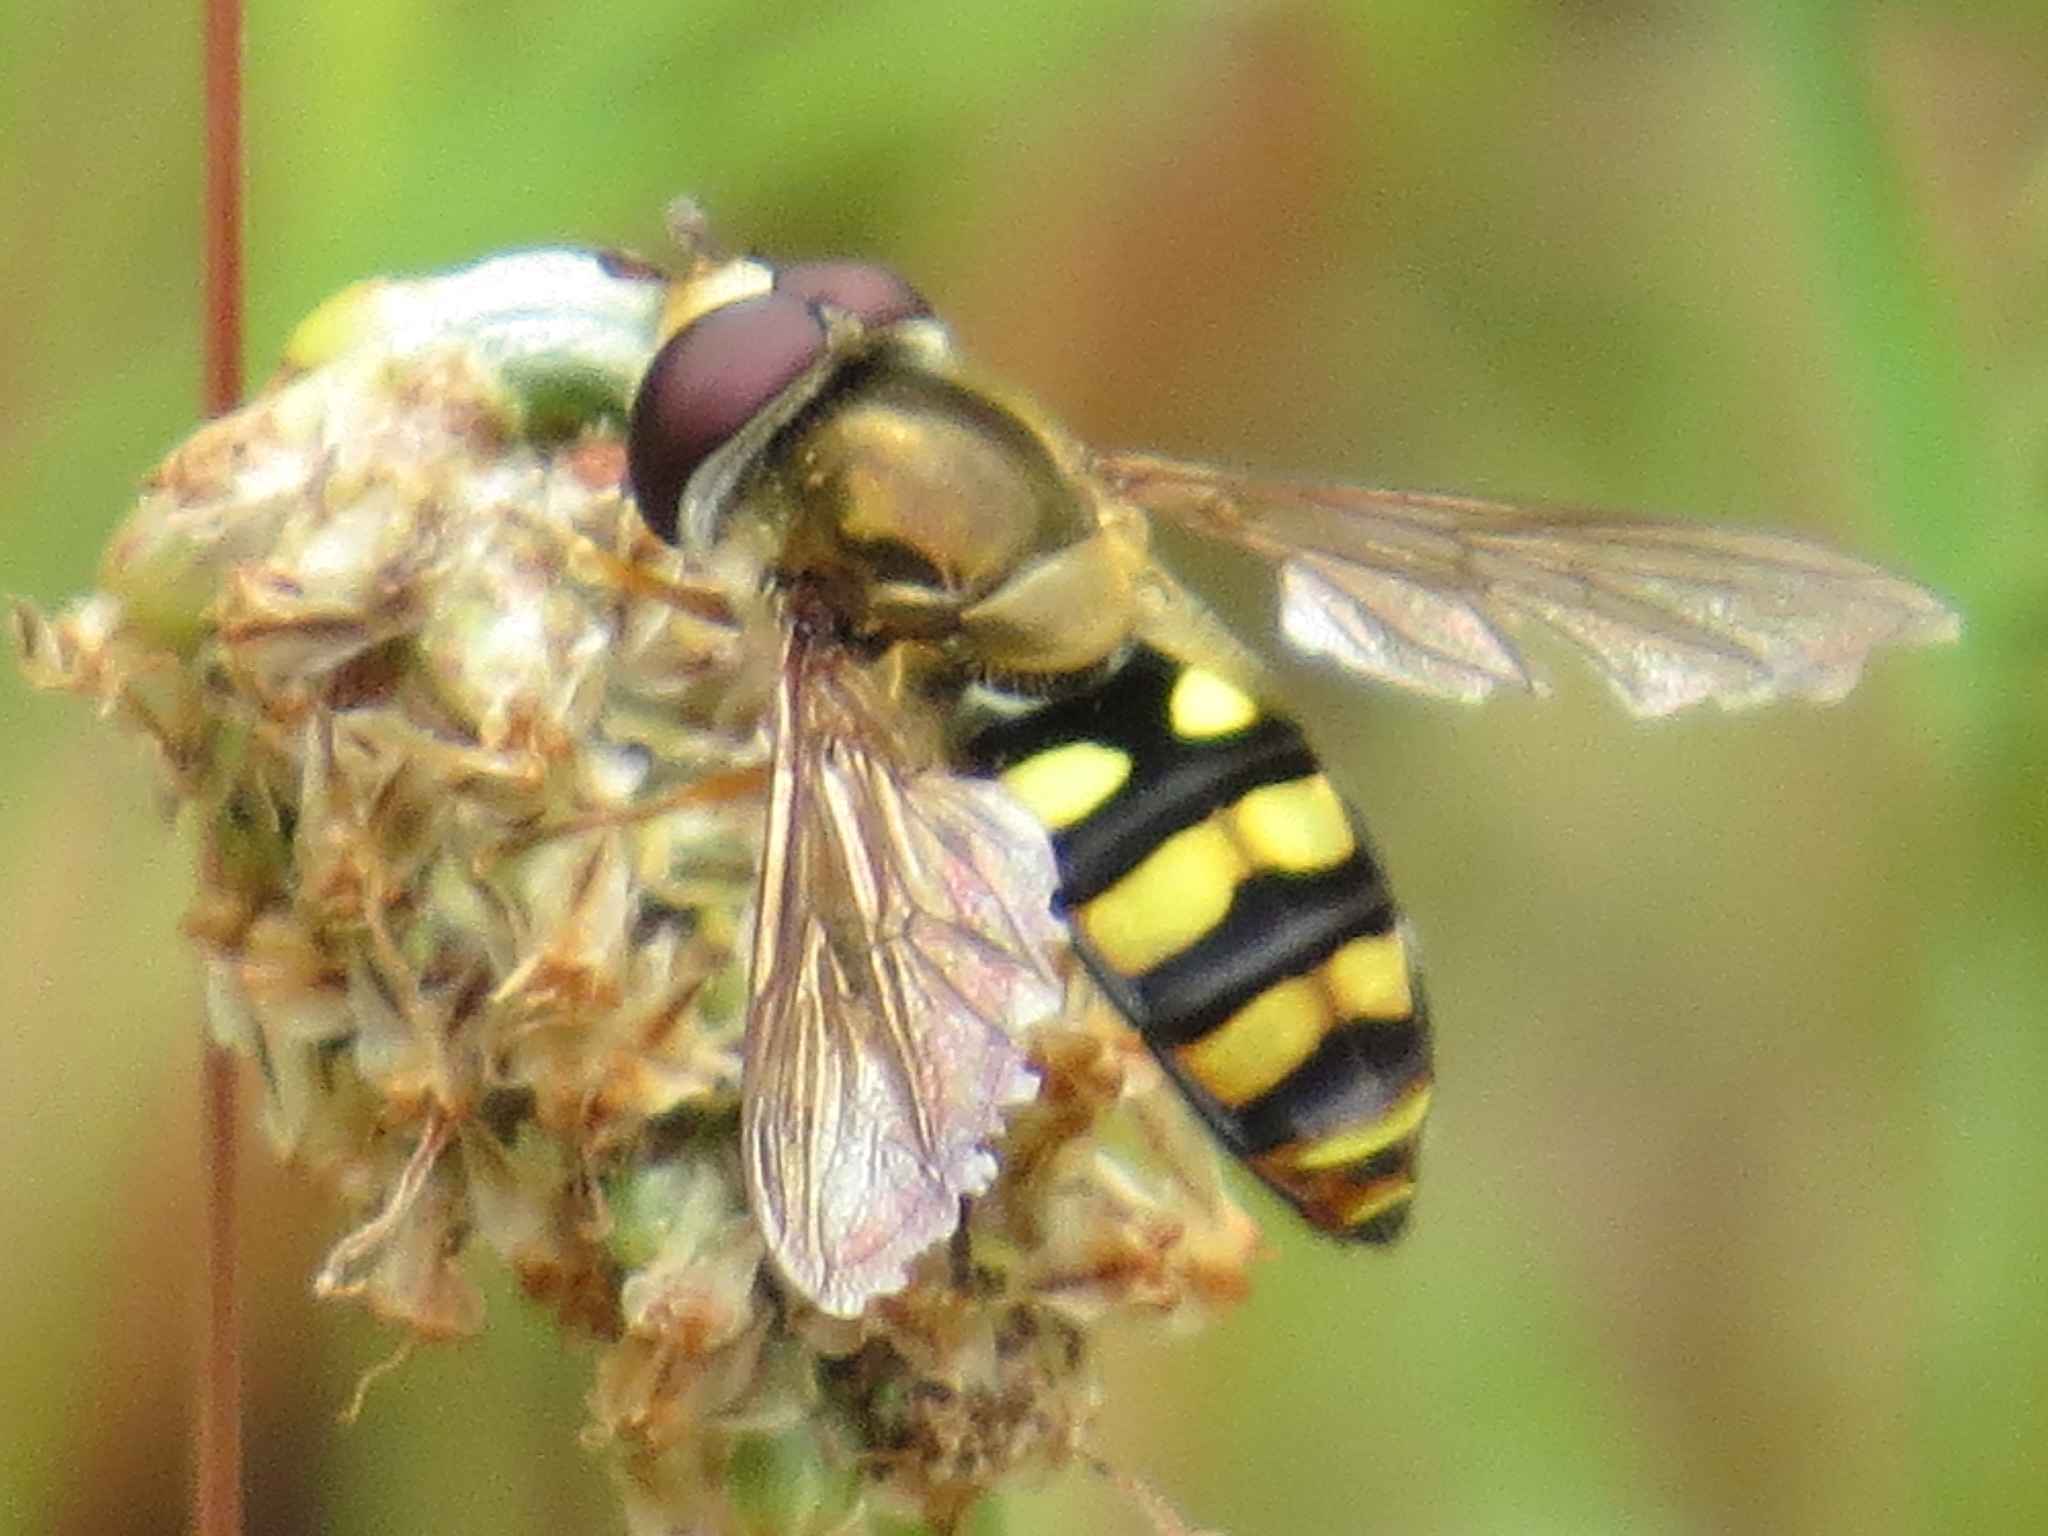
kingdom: Animalia
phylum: Arthropoda
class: Insecta
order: Diptera
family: Syrphidae
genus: Eupeodes
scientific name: Eupeodes fumipennis
